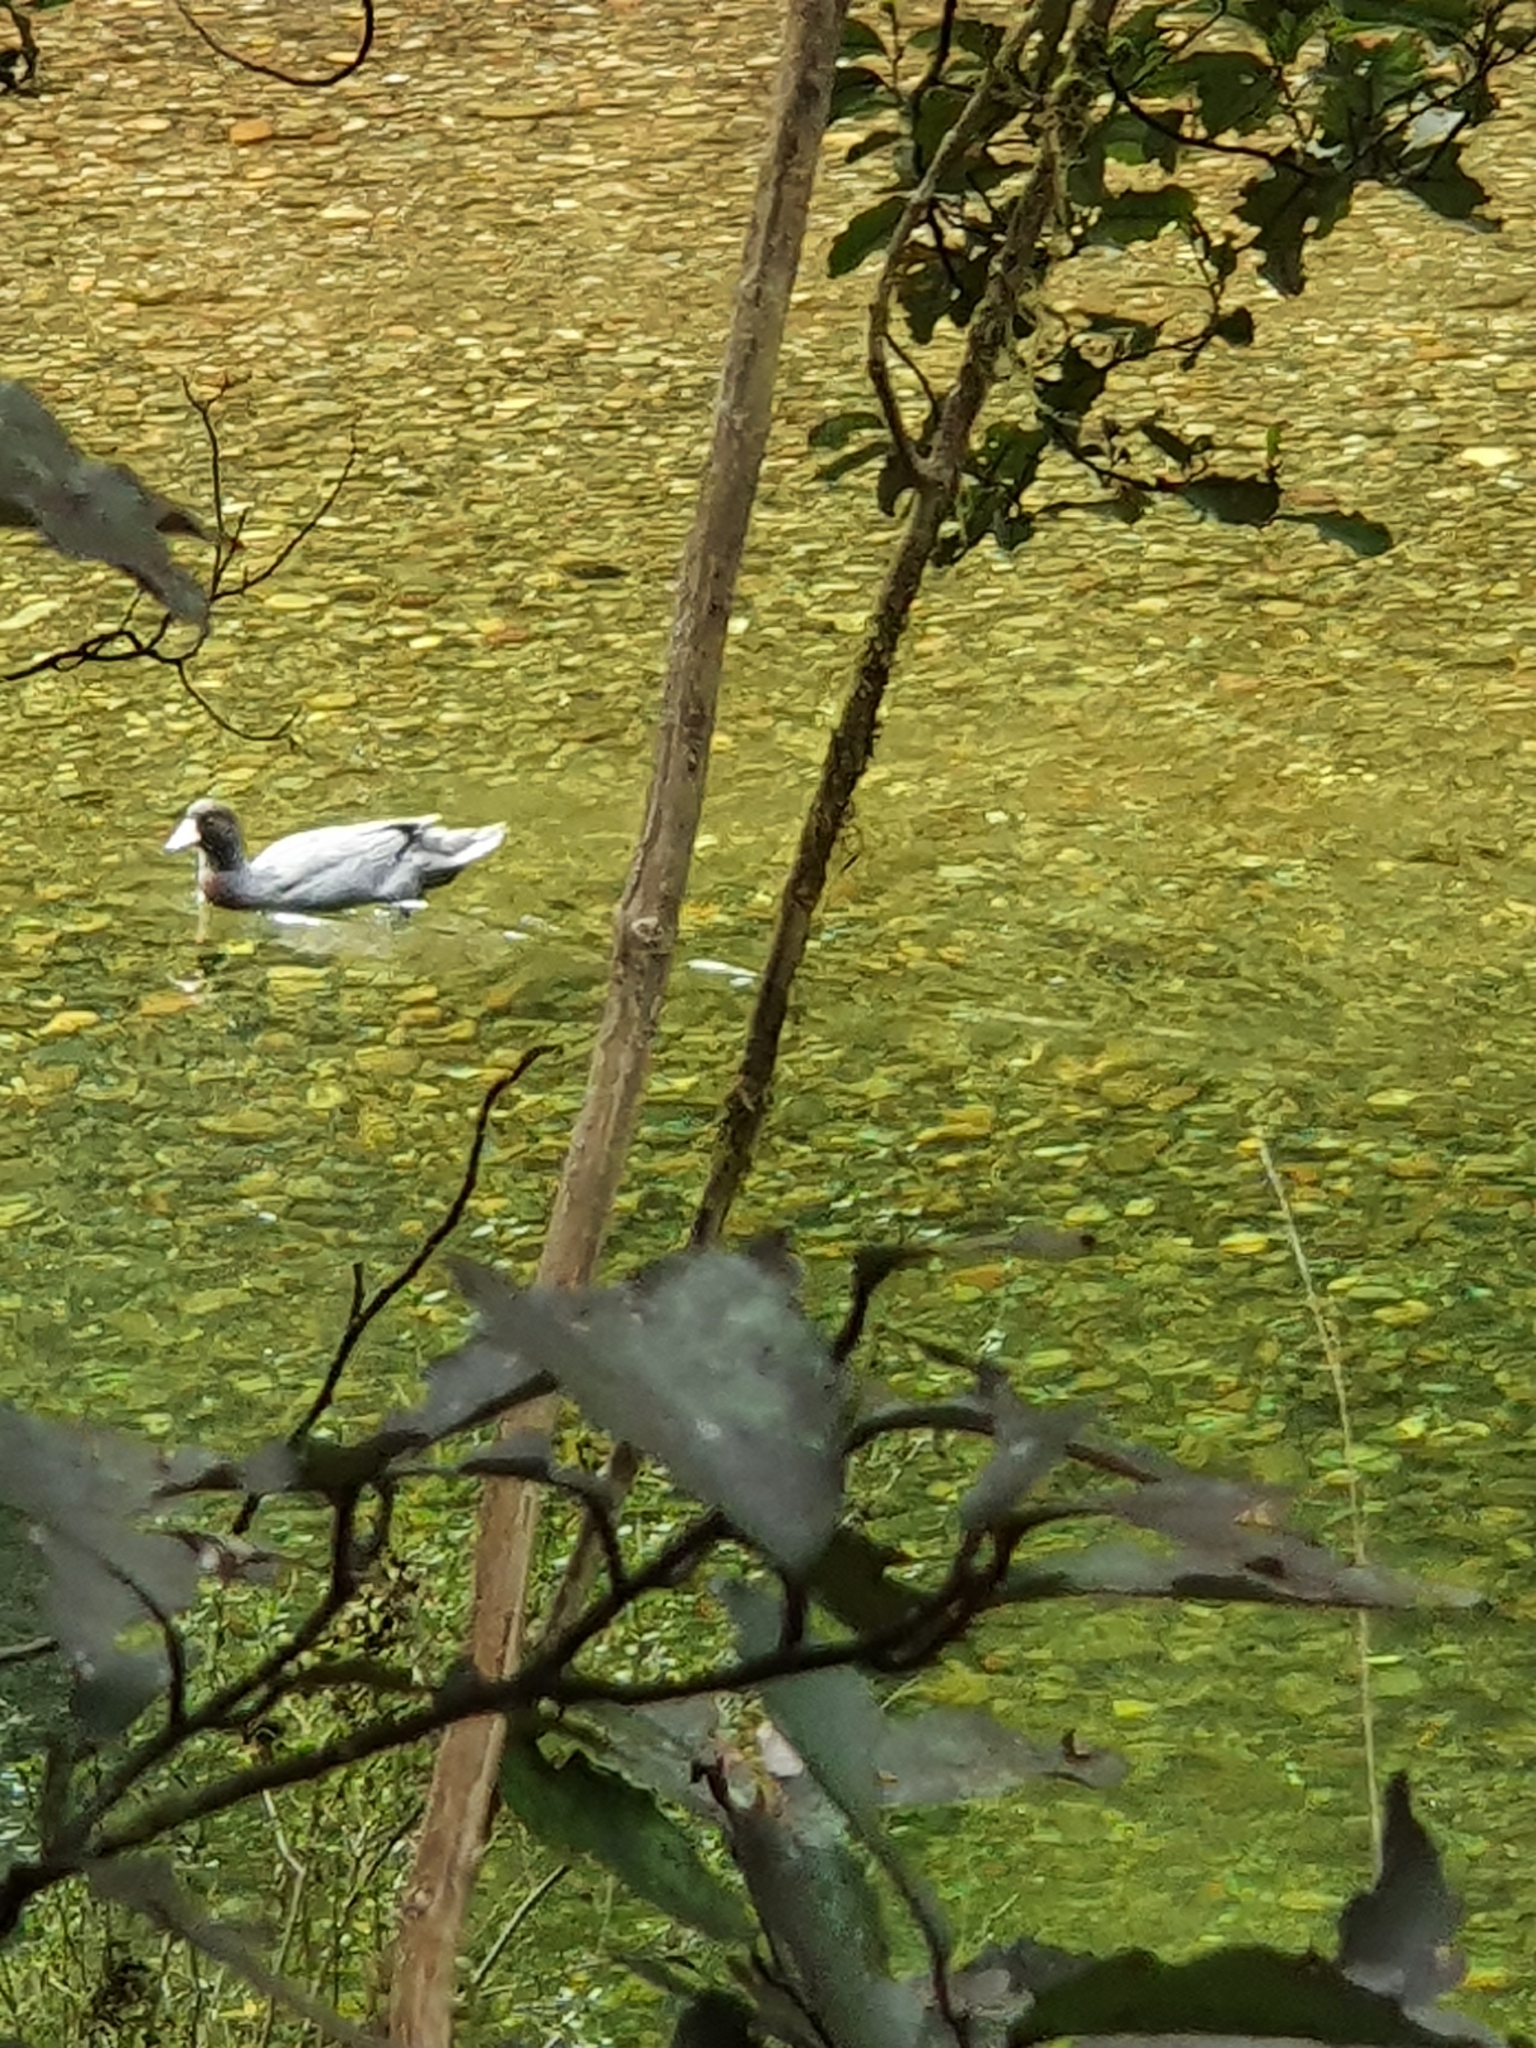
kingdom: Animalia
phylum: Chordata
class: Aves
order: Anseriformes
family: Anatidae
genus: Hymenolaimus
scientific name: Hymenolaimus malacorhynchos
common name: Blue duck
